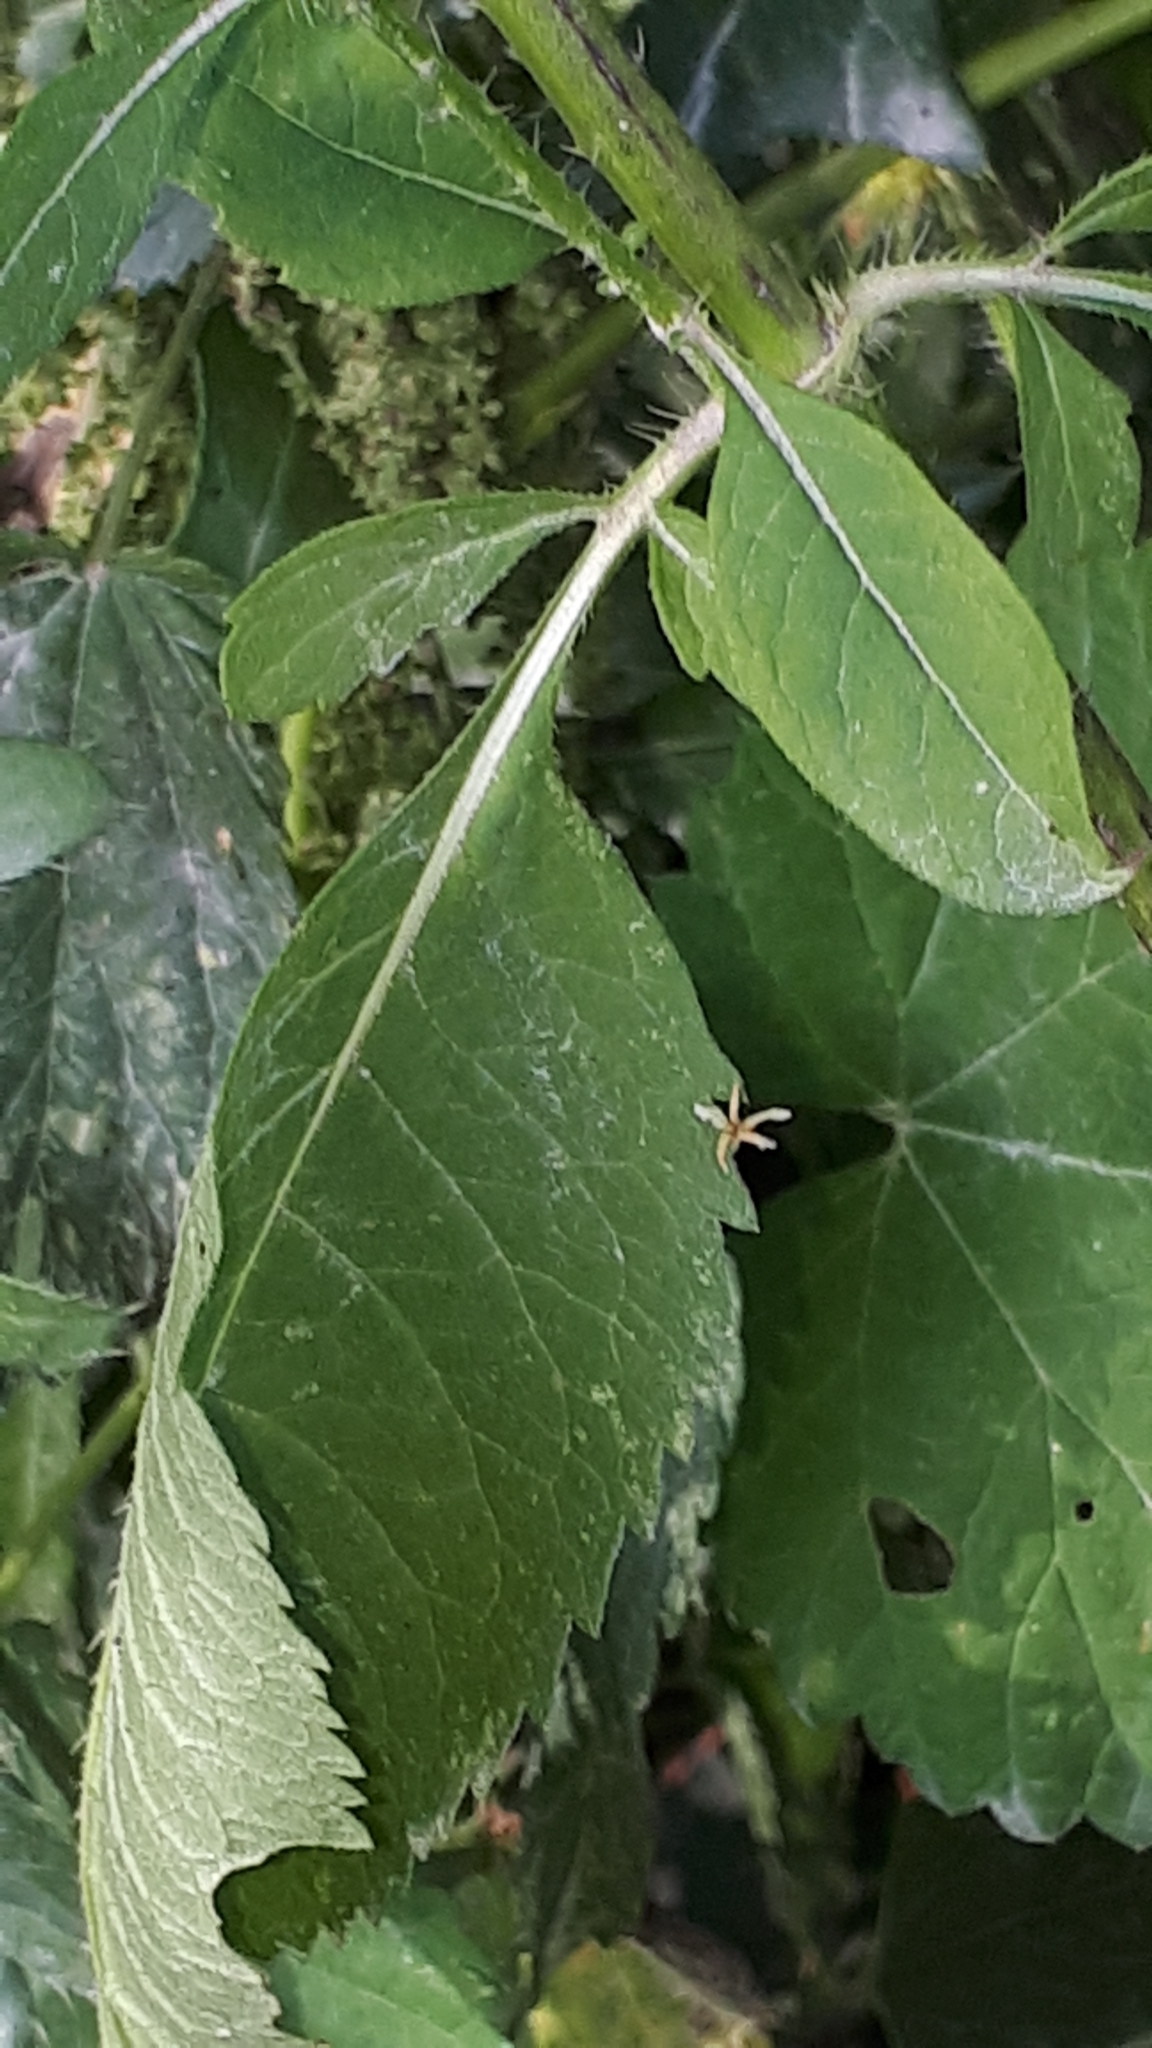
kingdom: Plantae
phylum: Tracheophyta
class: Magnoliopsida
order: Dipsacales
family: Caprifoliaceae
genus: Dipsacus
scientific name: Dipsacus strigosus
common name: Yellow-flowered teasel
